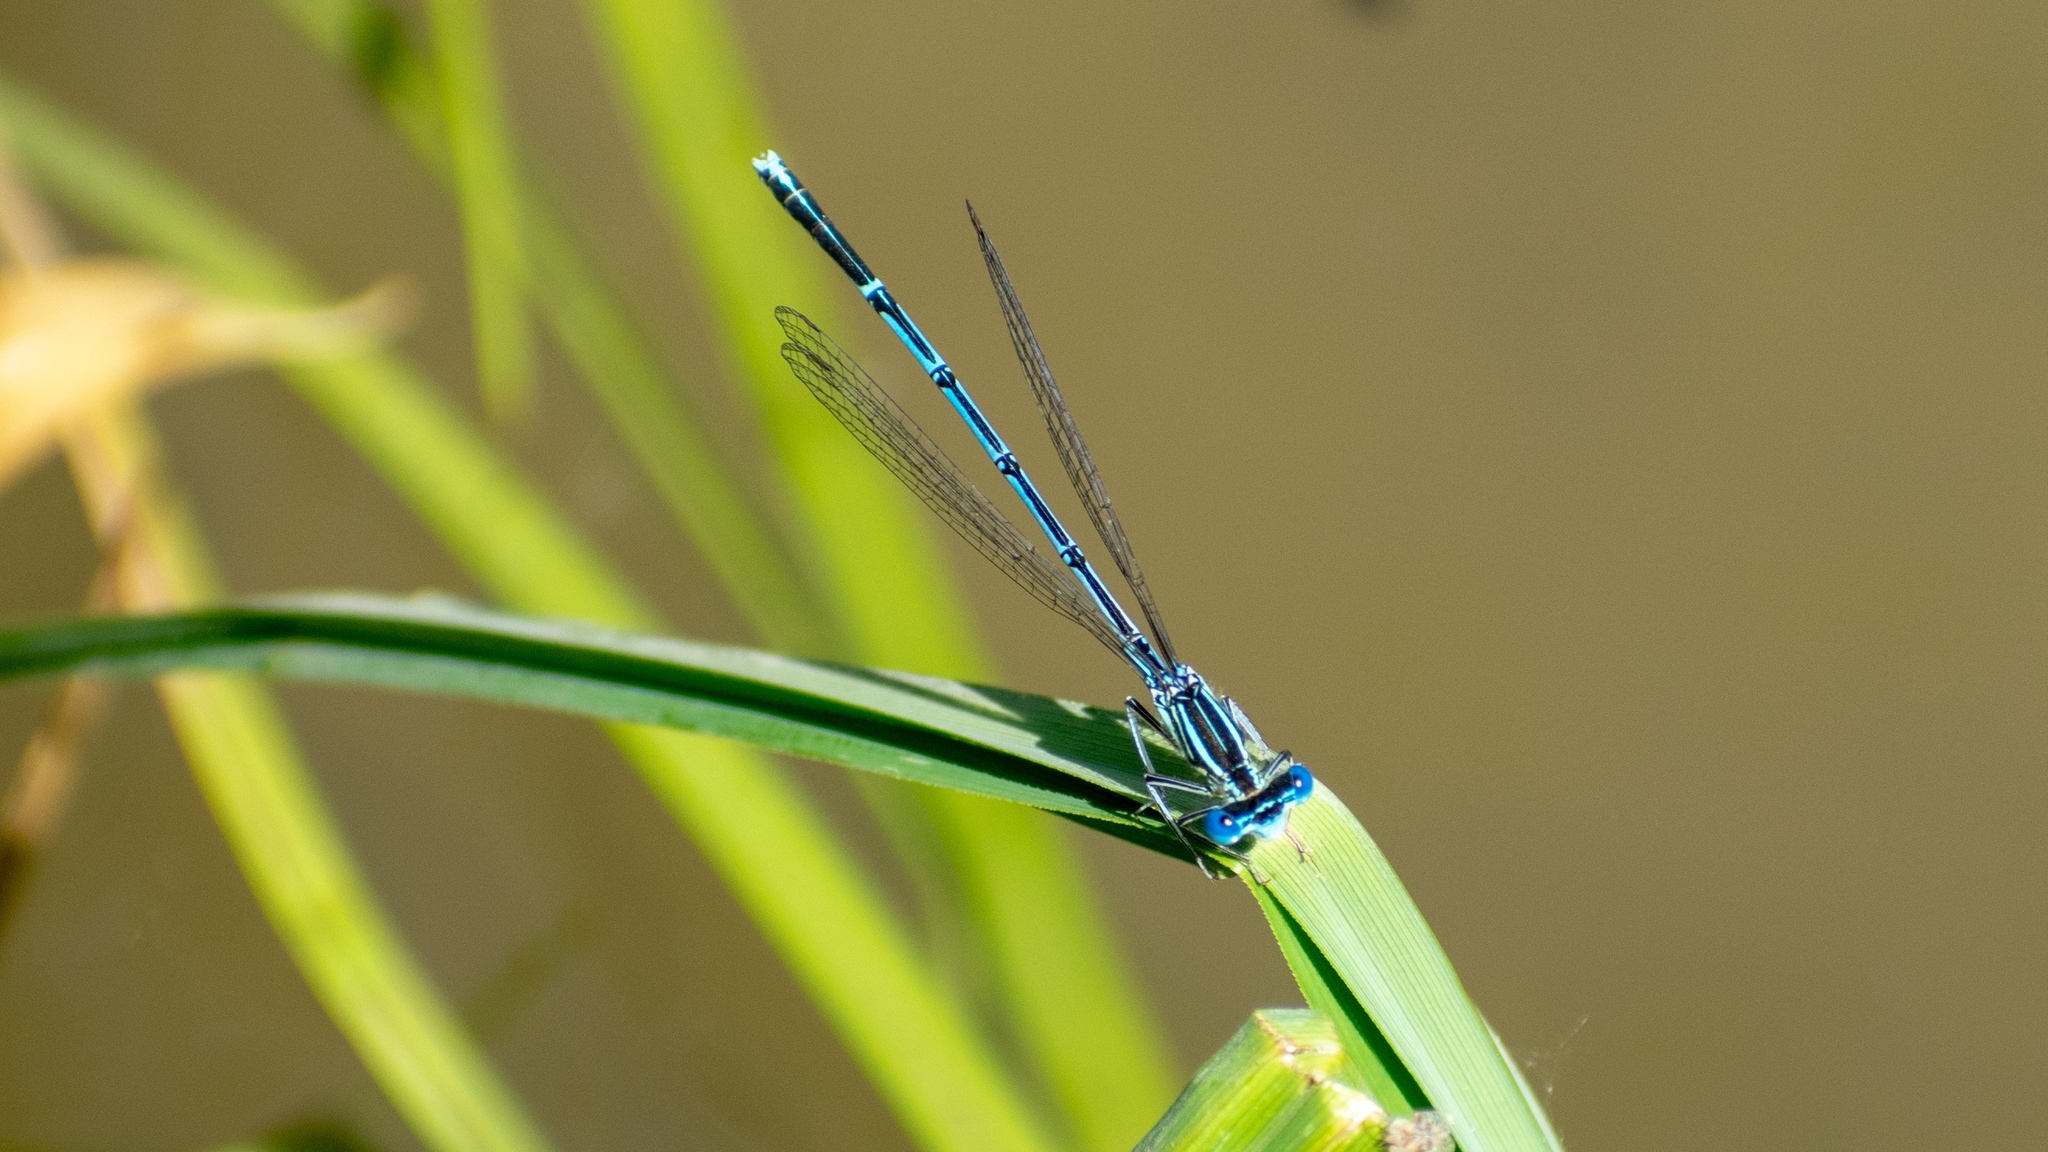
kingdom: Animalia
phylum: Arthropoda
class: Insecta
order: Odonata
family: Platycnemididae
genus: Platycnemis
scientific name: Platycnemis pennipes
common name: White-legged damselfly
